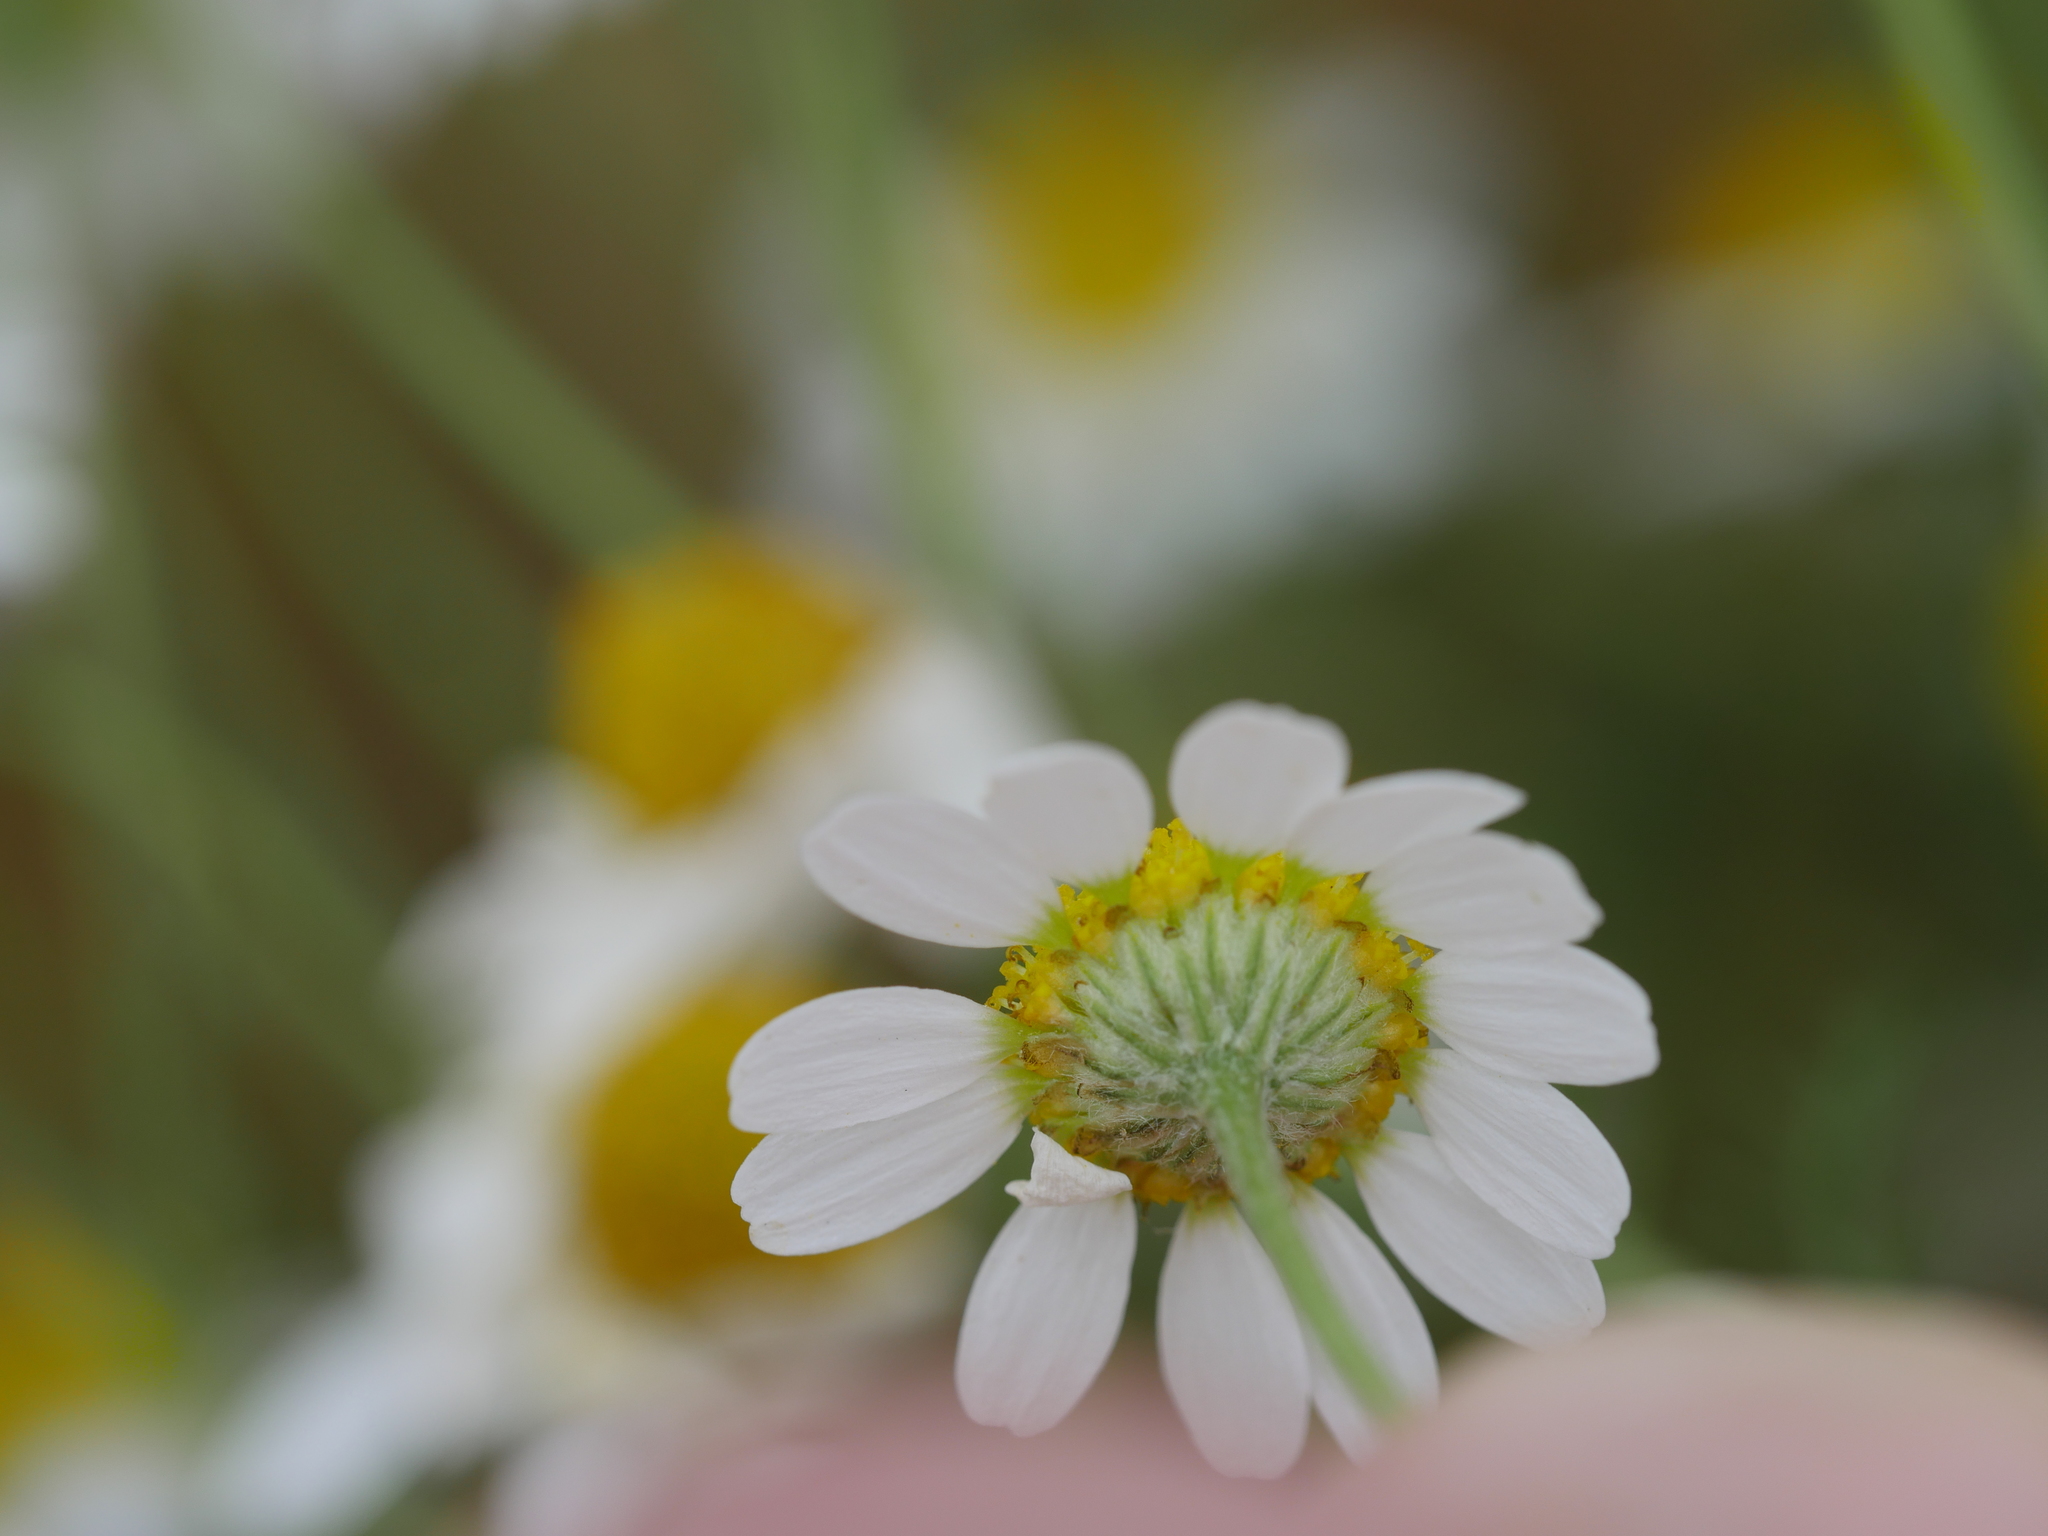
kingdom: Plantae
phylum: Tracheophyta
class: Magnoliopsida
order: Asterales
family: Asteraceae
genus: Matricaria
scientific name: Matricaria chamomilla
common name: Scented mayweed
